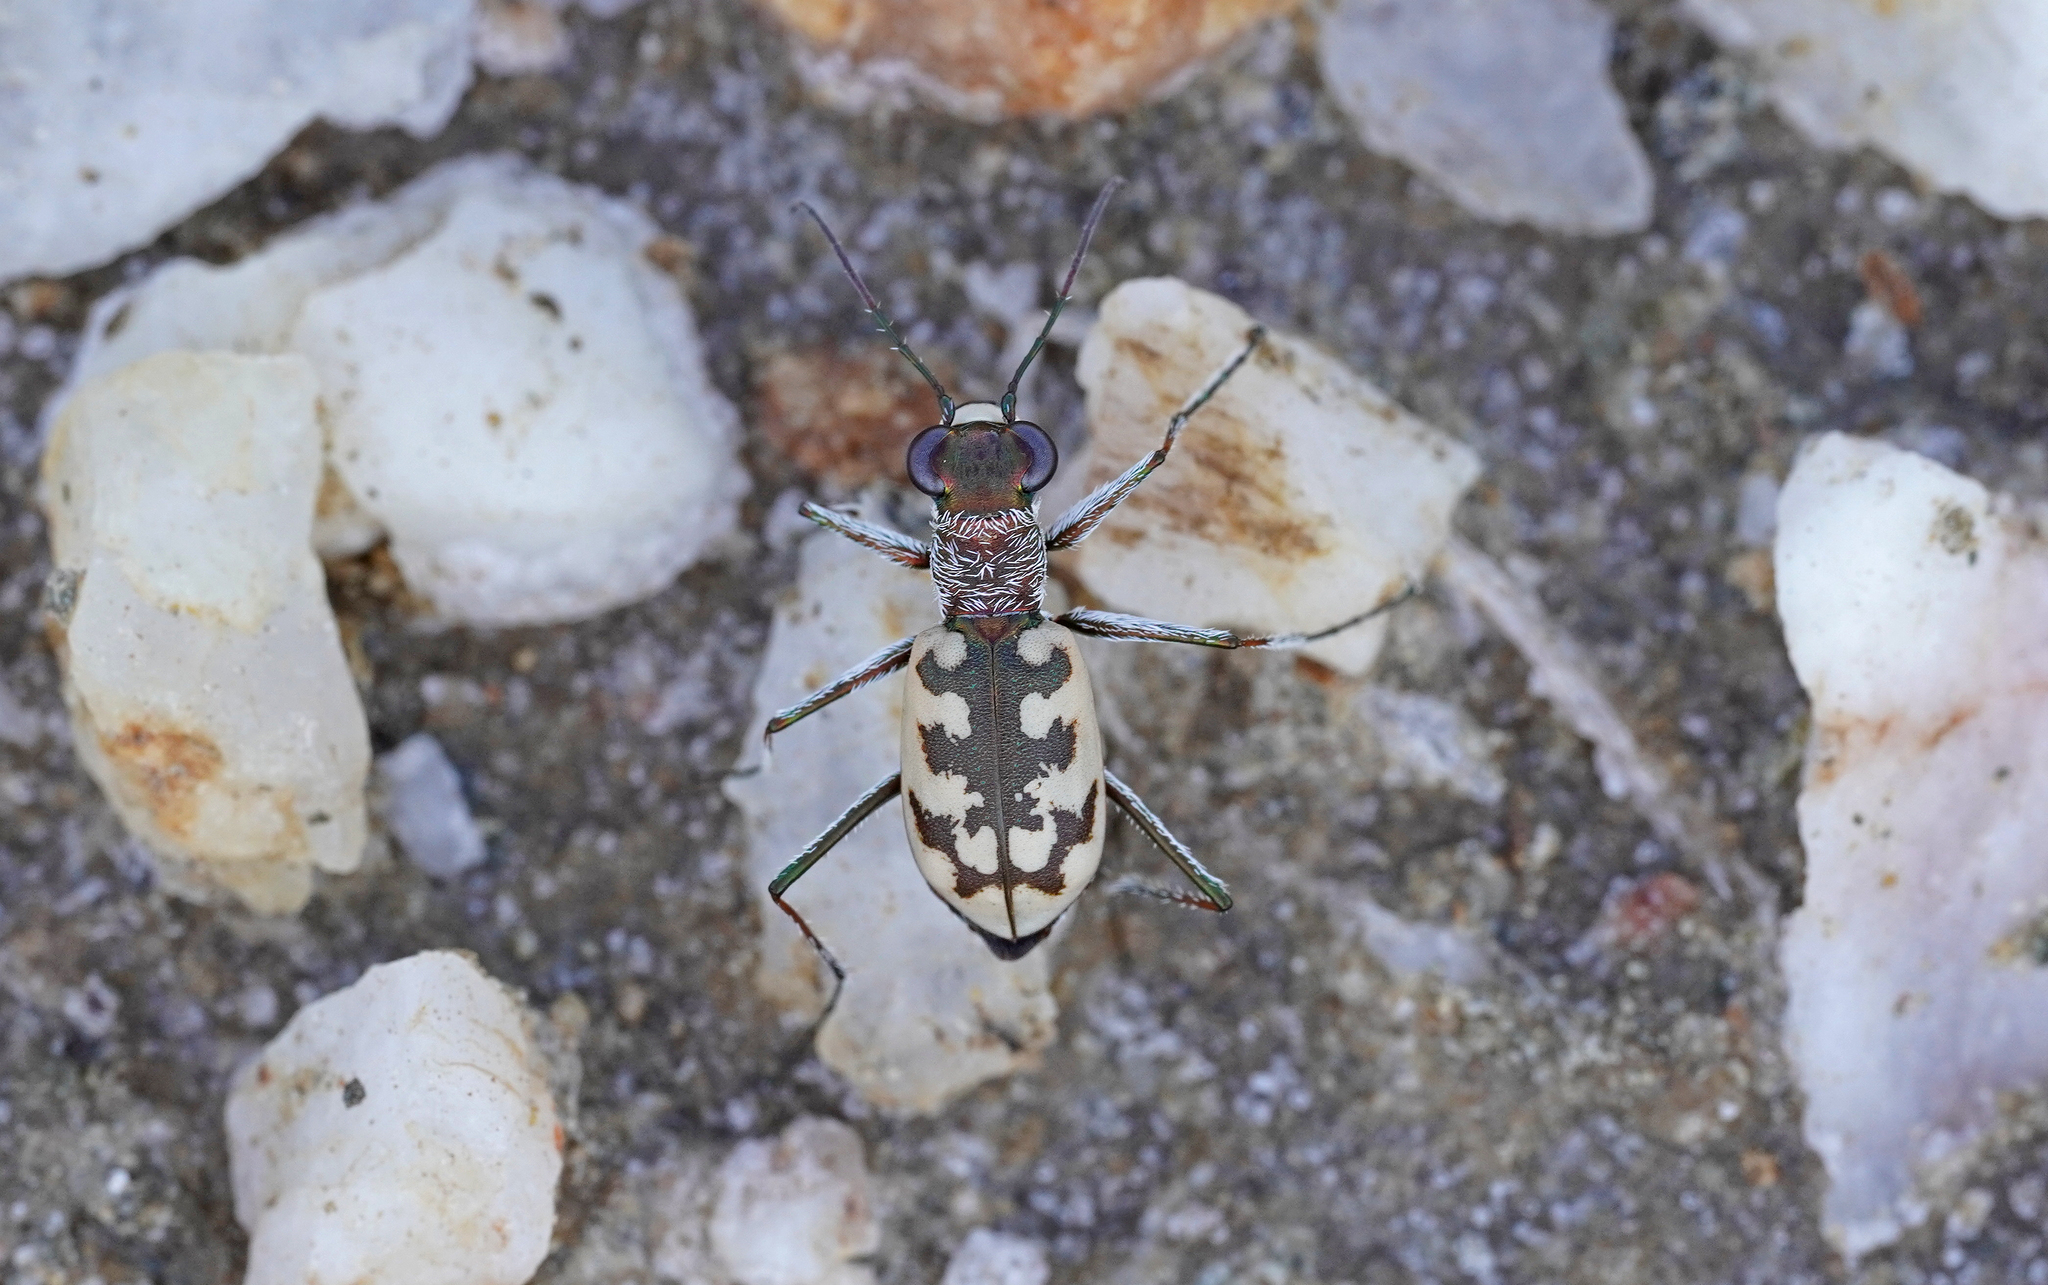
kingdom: Animalia
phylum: Arthropoda
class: Insecta
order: Coleoptera
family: Carabidae
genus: Cephalota
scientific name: Cephalota circumdata
